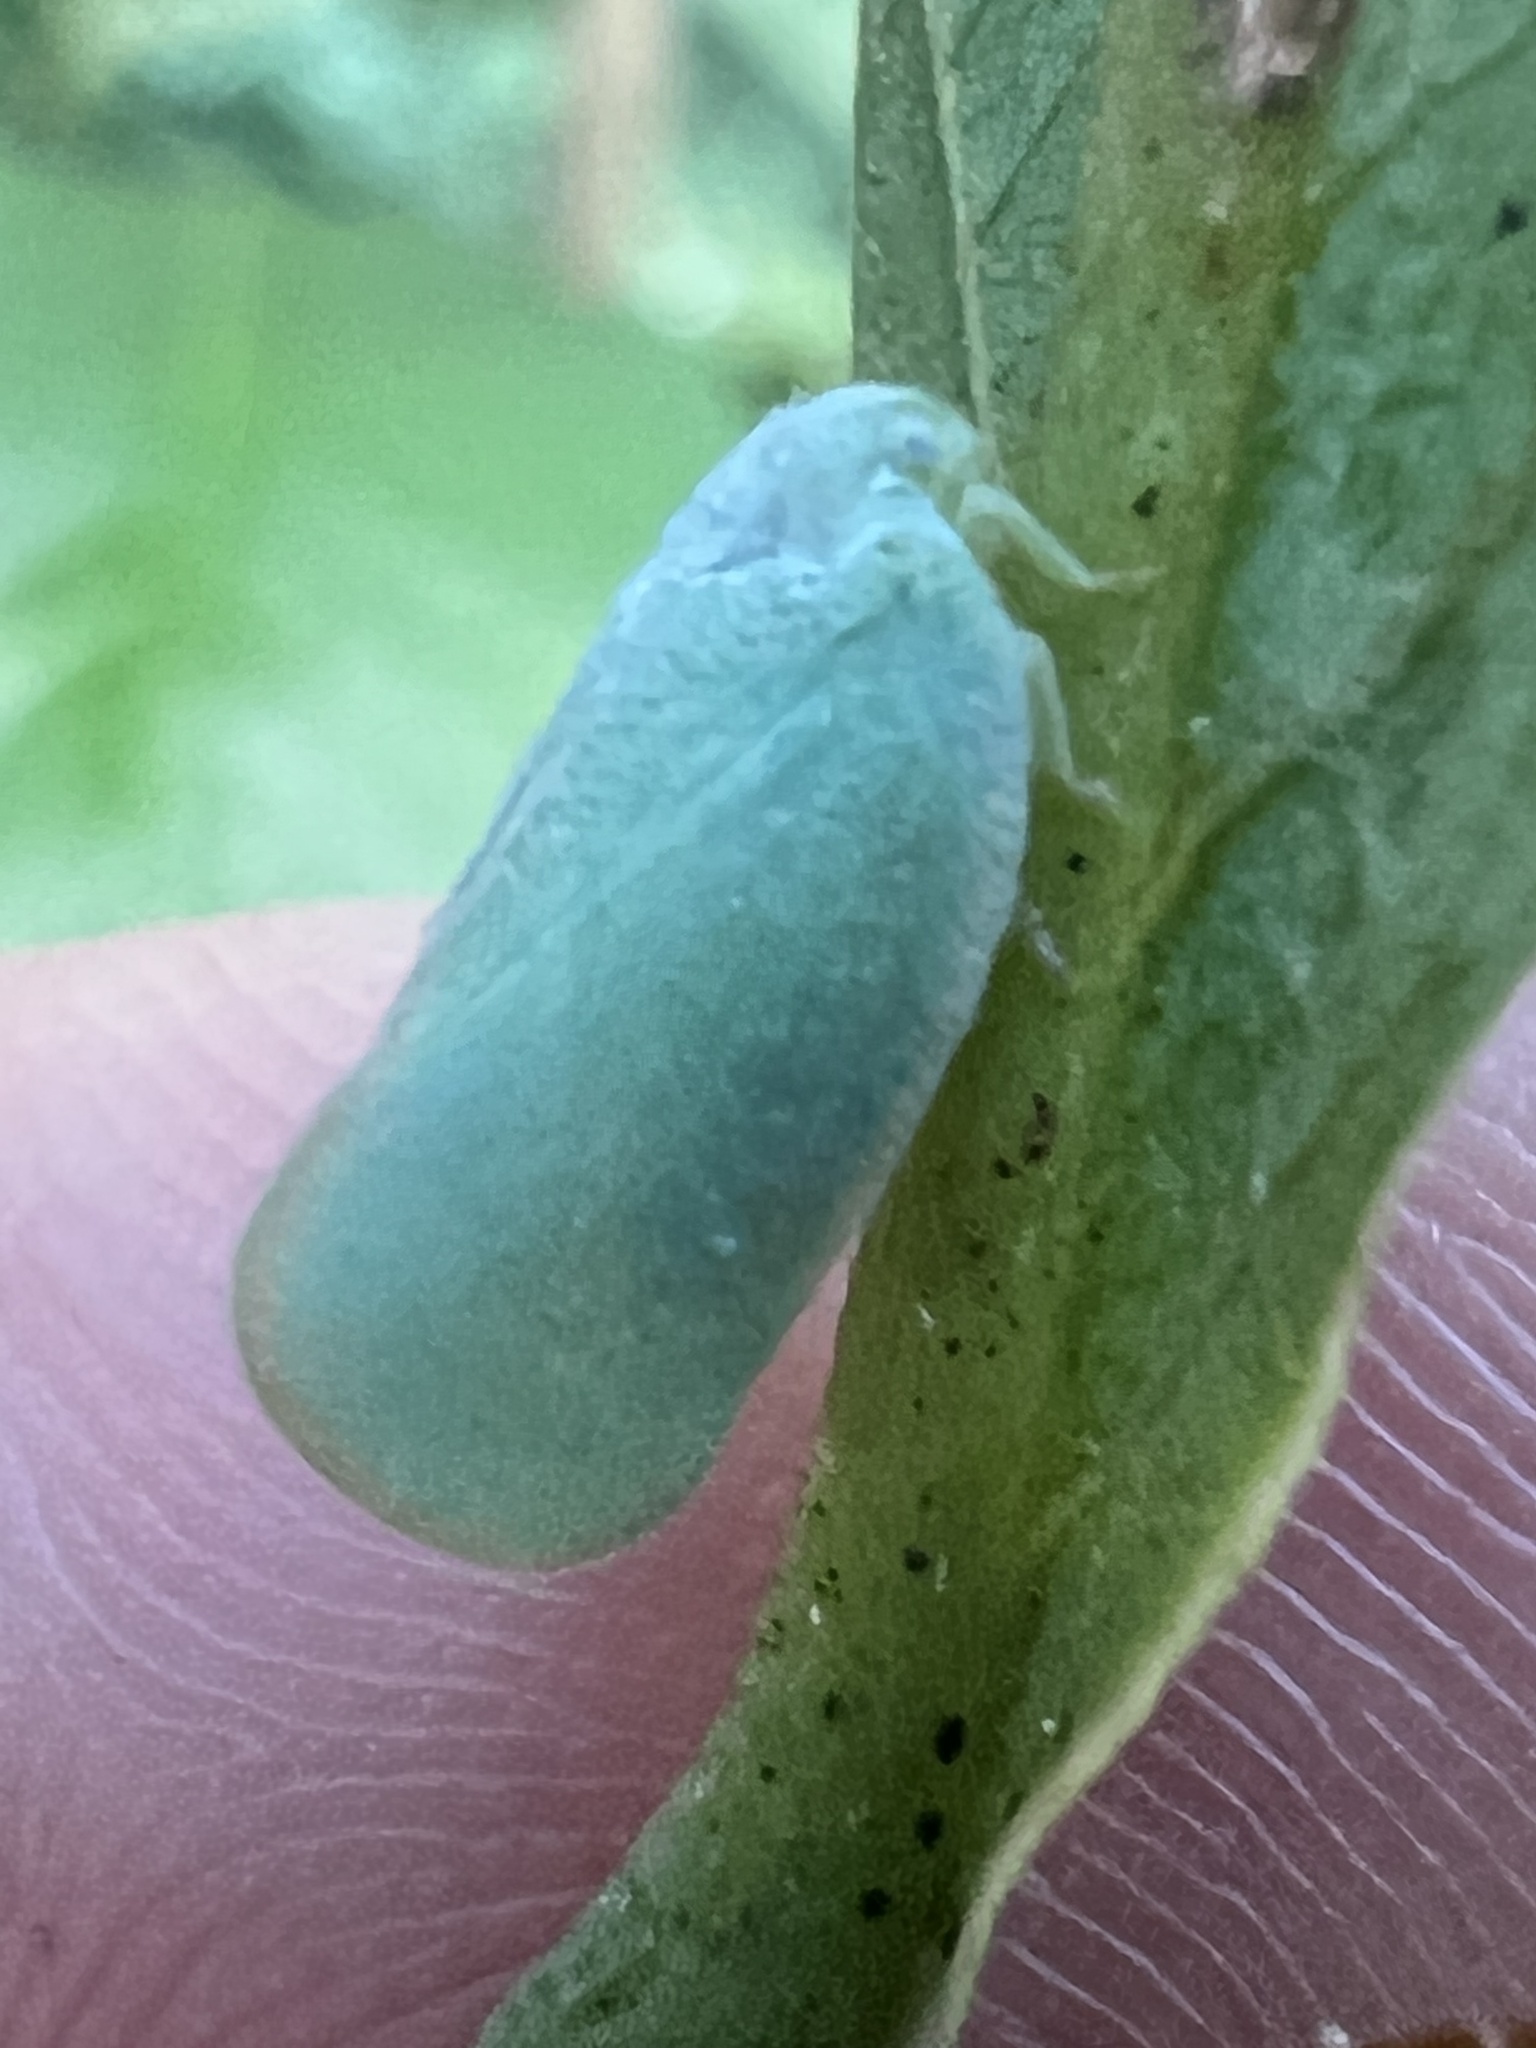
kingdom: Animalia
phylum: Arthropoda
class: Insecta
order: Hemiptera
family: Flatidae
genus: Ormenoides
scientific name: Ormenoides venusta
